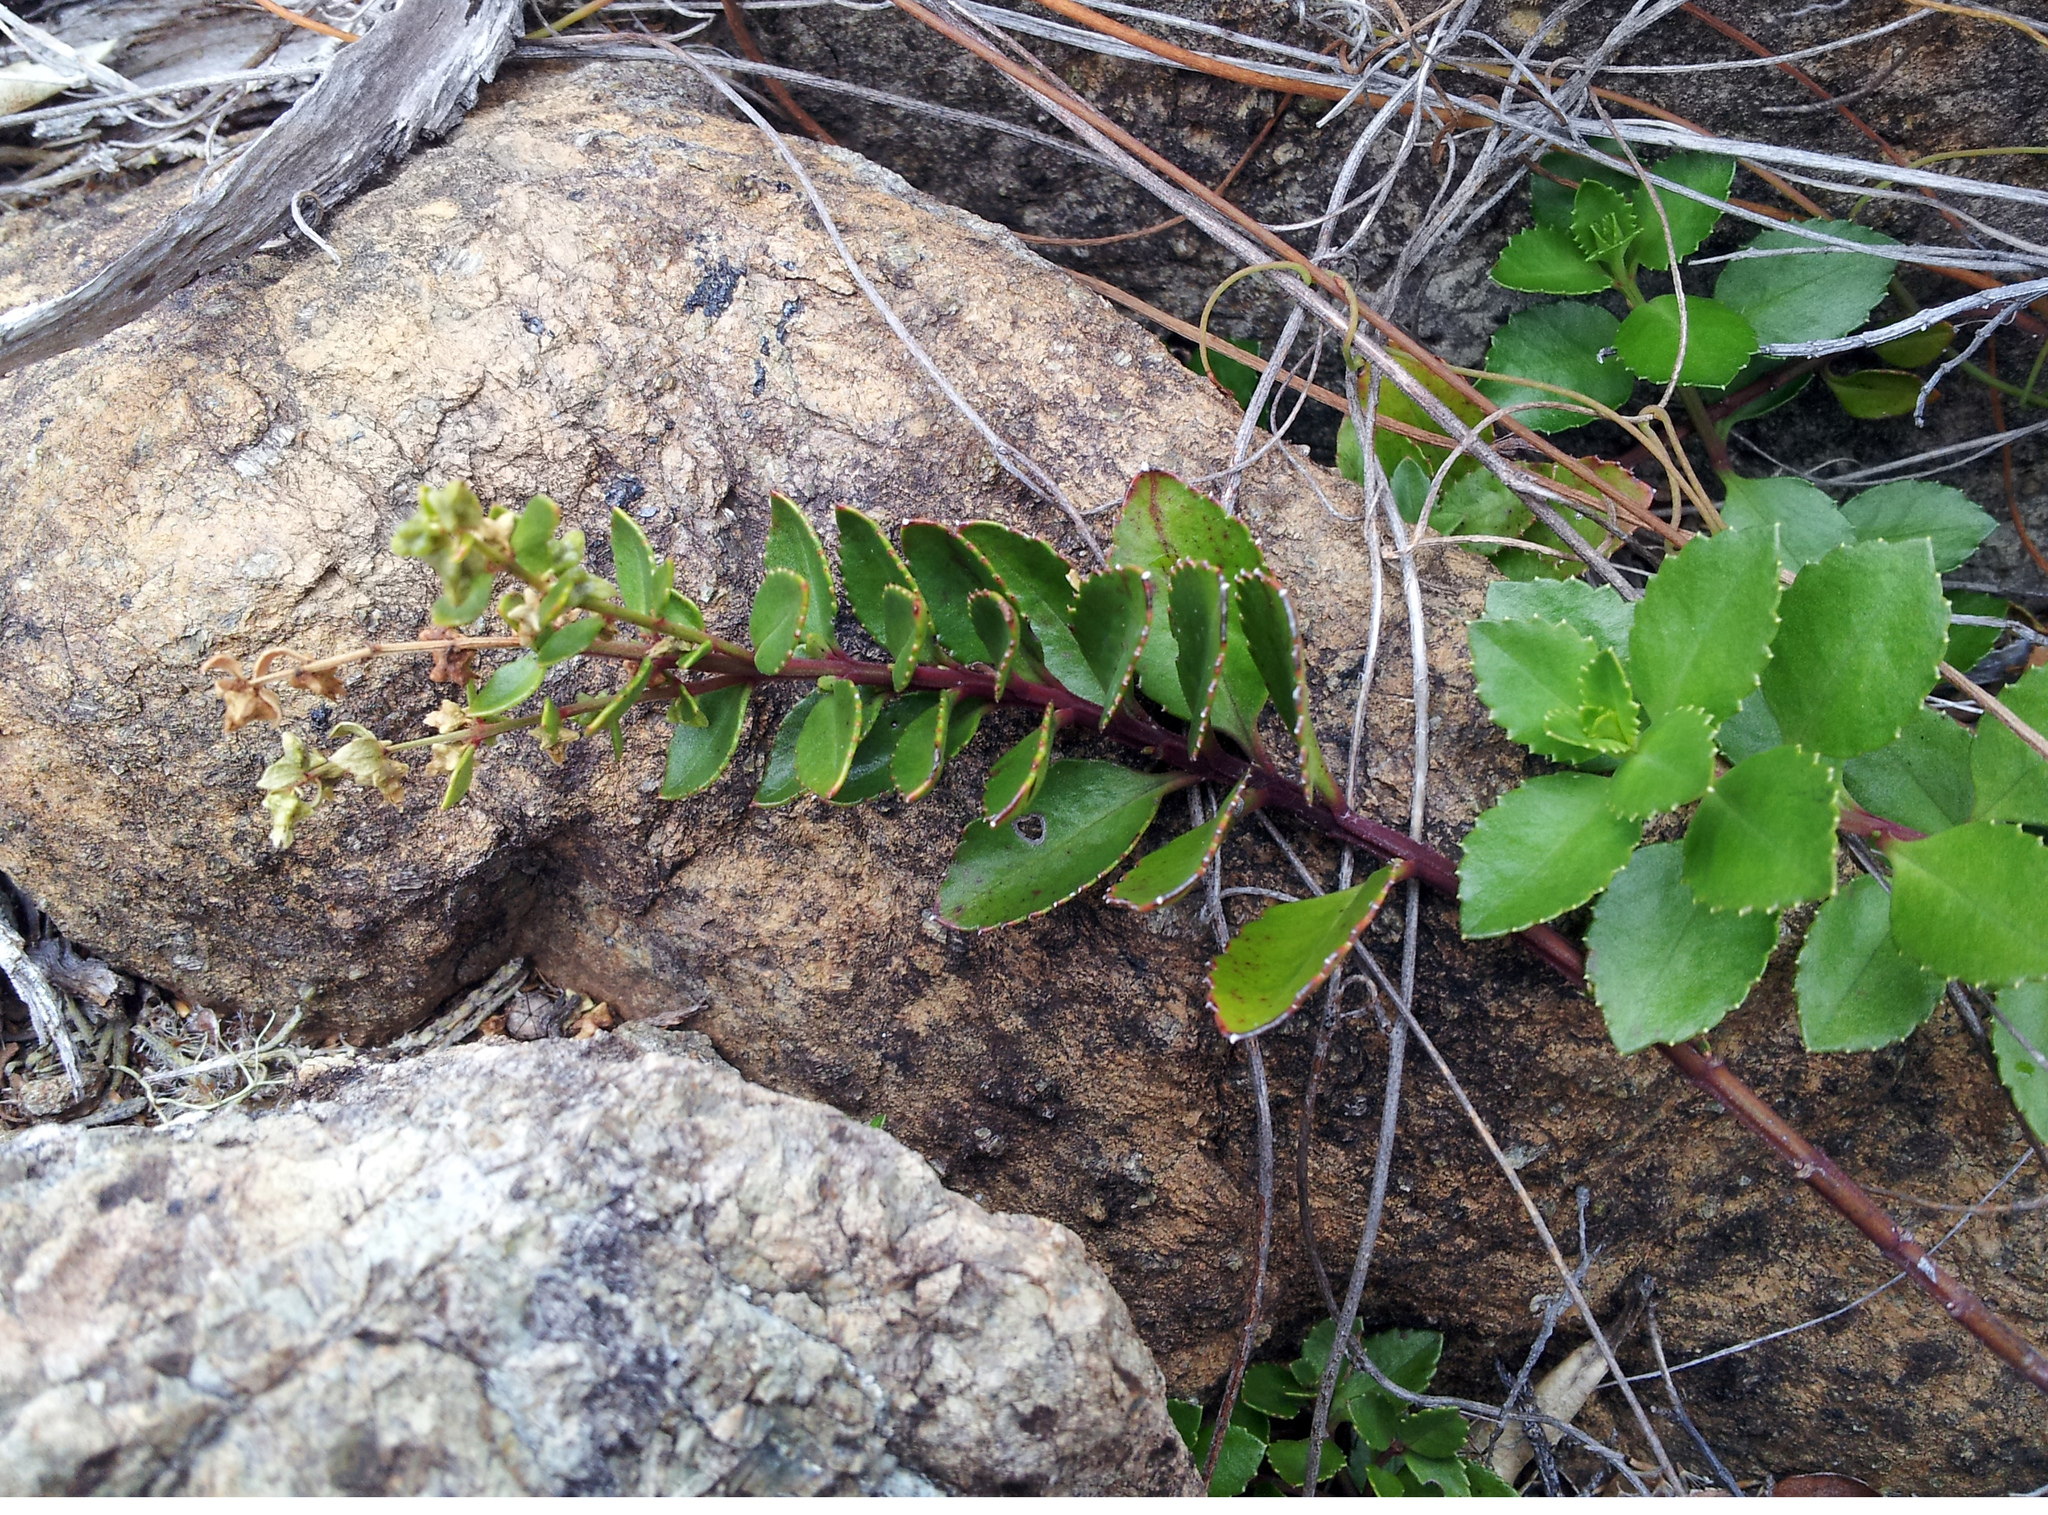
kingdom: Plantae
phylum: Tracheophyta
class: Magnoliopsida
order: Saxifragales
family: Haloragaceae
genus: Haloragis
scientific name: Haloragis erecta
